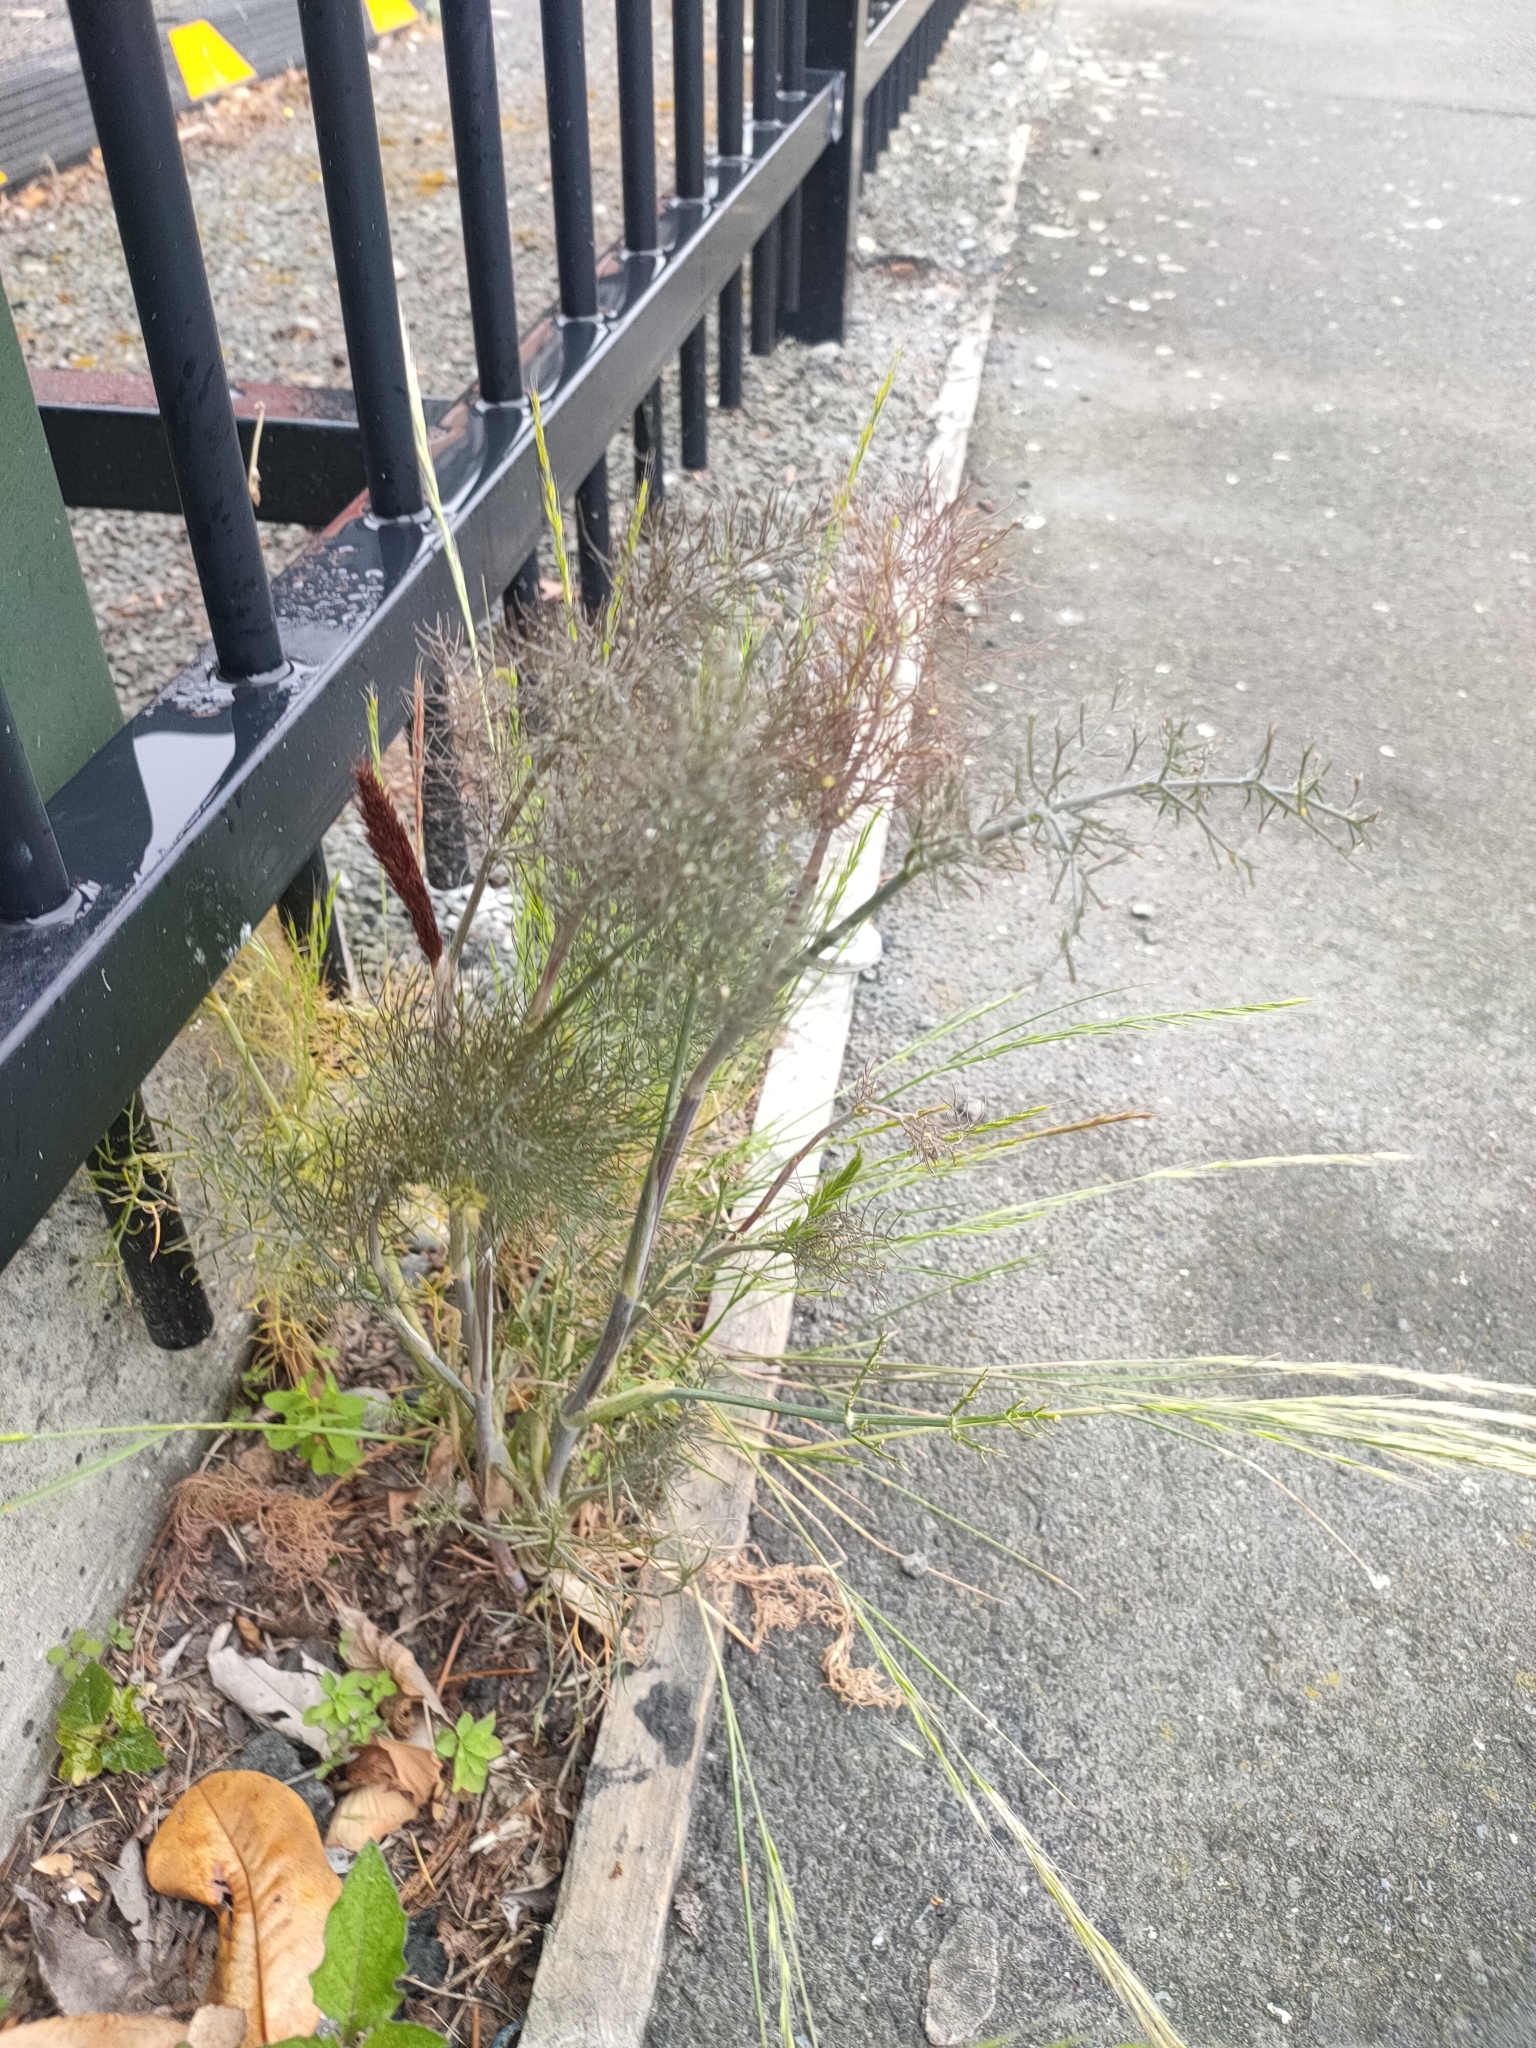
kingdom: Plantae
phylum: Tracheophyta
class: Magnoliopsida
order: Apiales
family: Apiaceae
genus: Foeniculum
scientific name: Foeniculum vulgare
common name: Fennel
